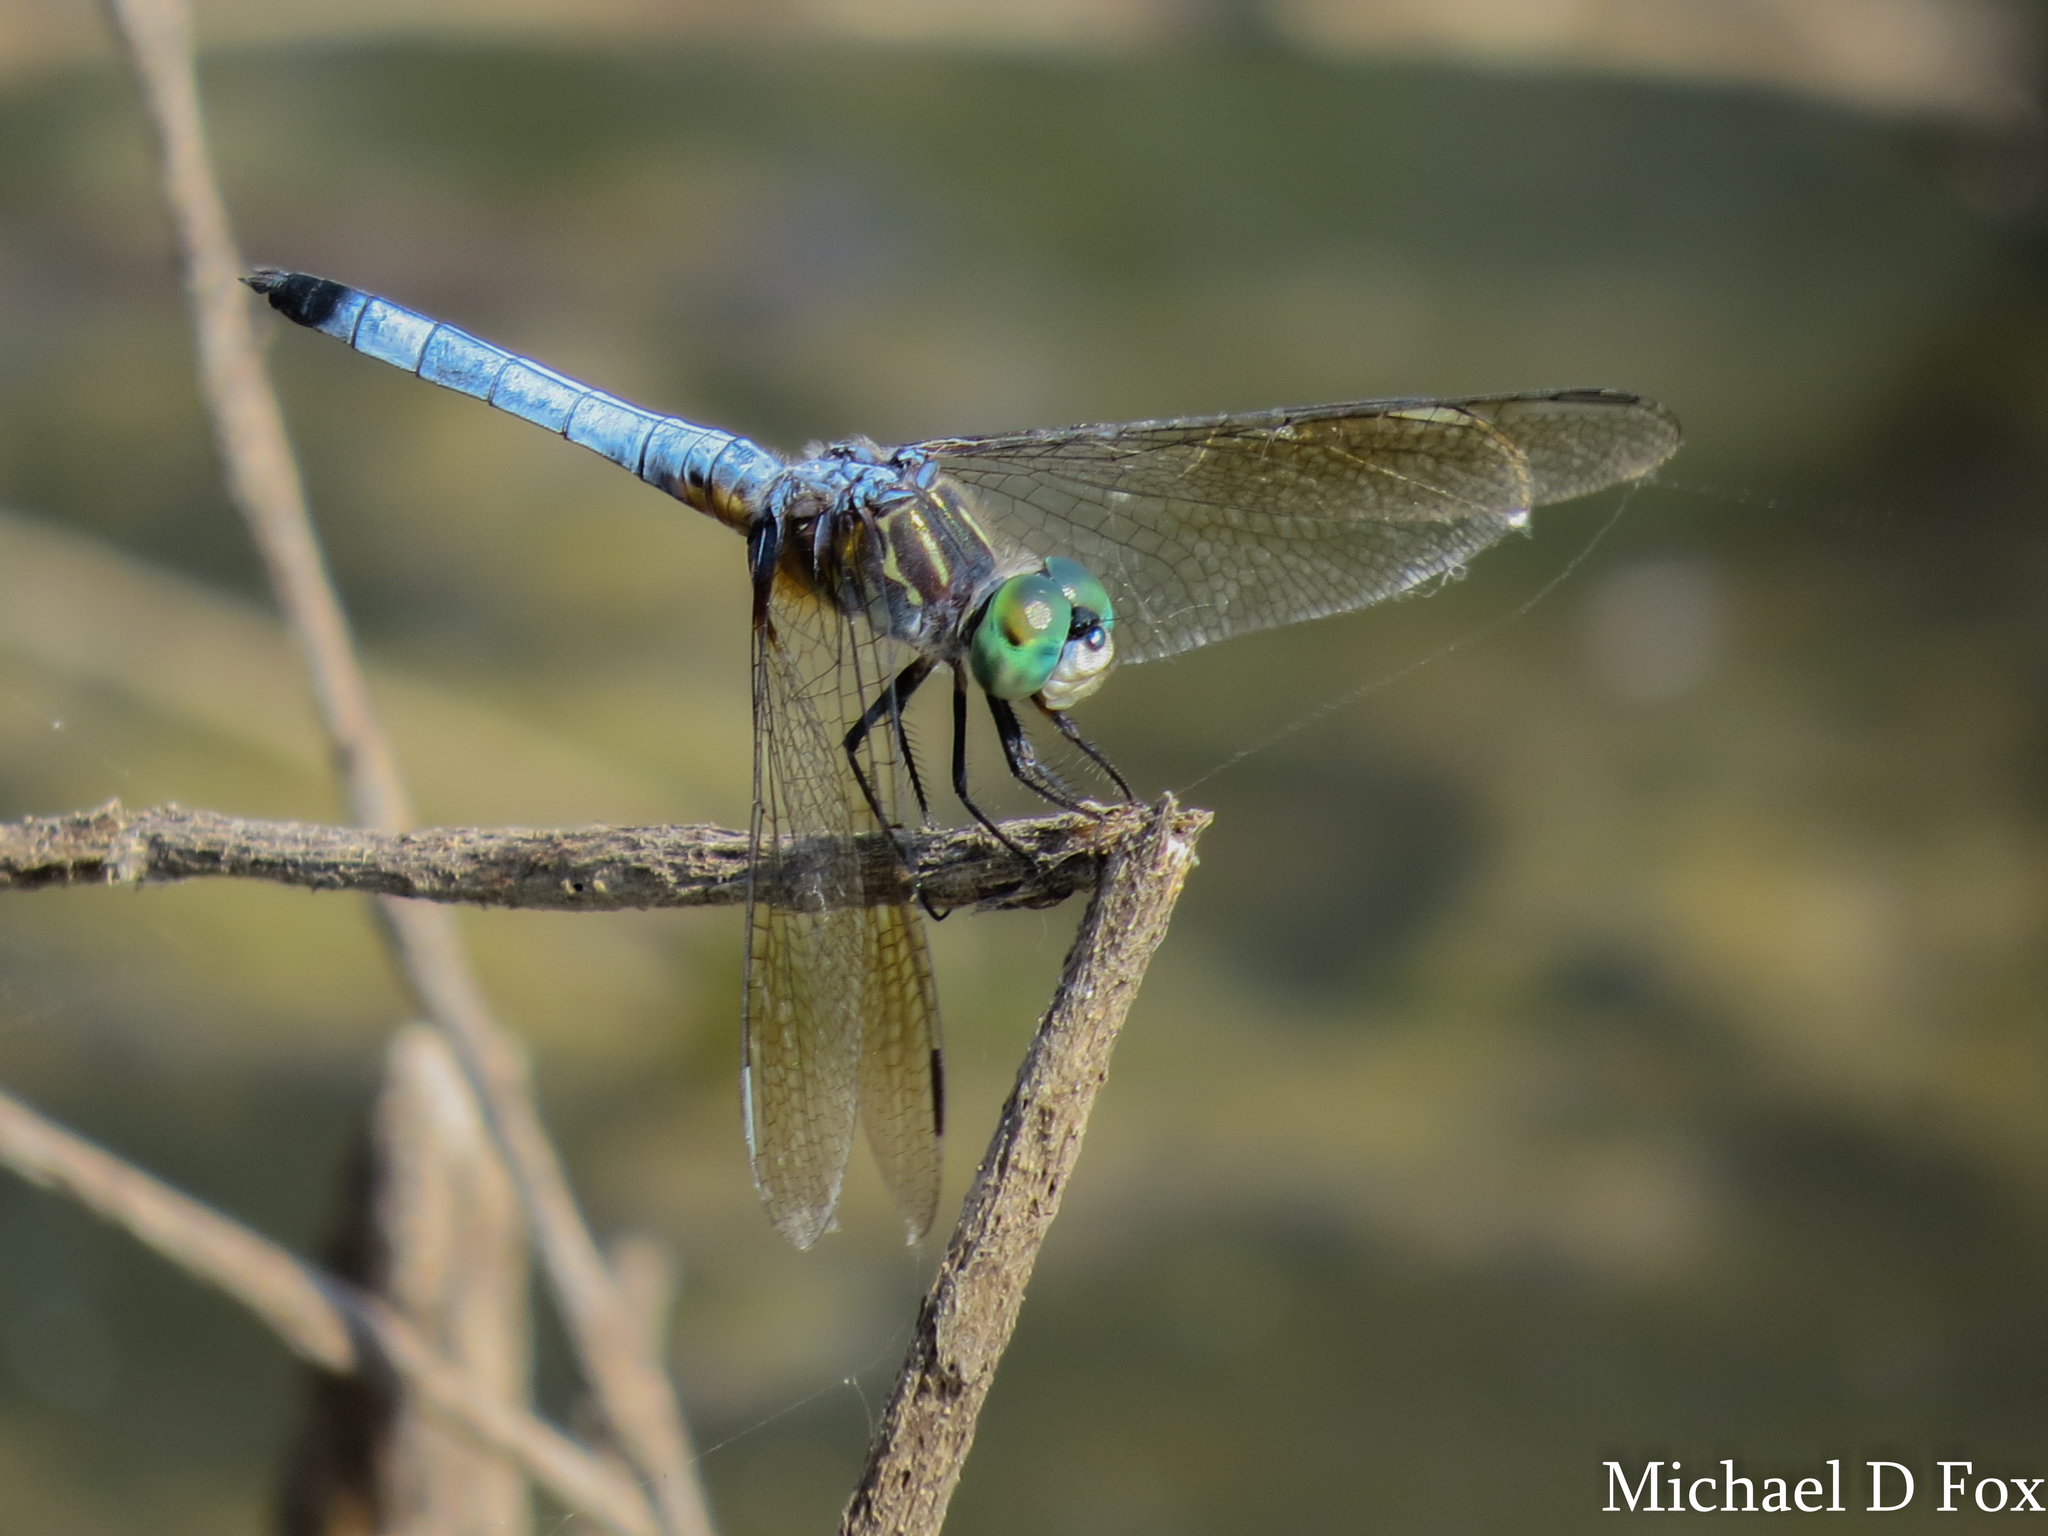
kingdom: Animalia
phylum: Arthropoda
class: Insecta
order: Odonata
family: Libellulidae
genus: Pachydiplax
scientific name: Pachydiplax longipennis
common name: Blue dasher
